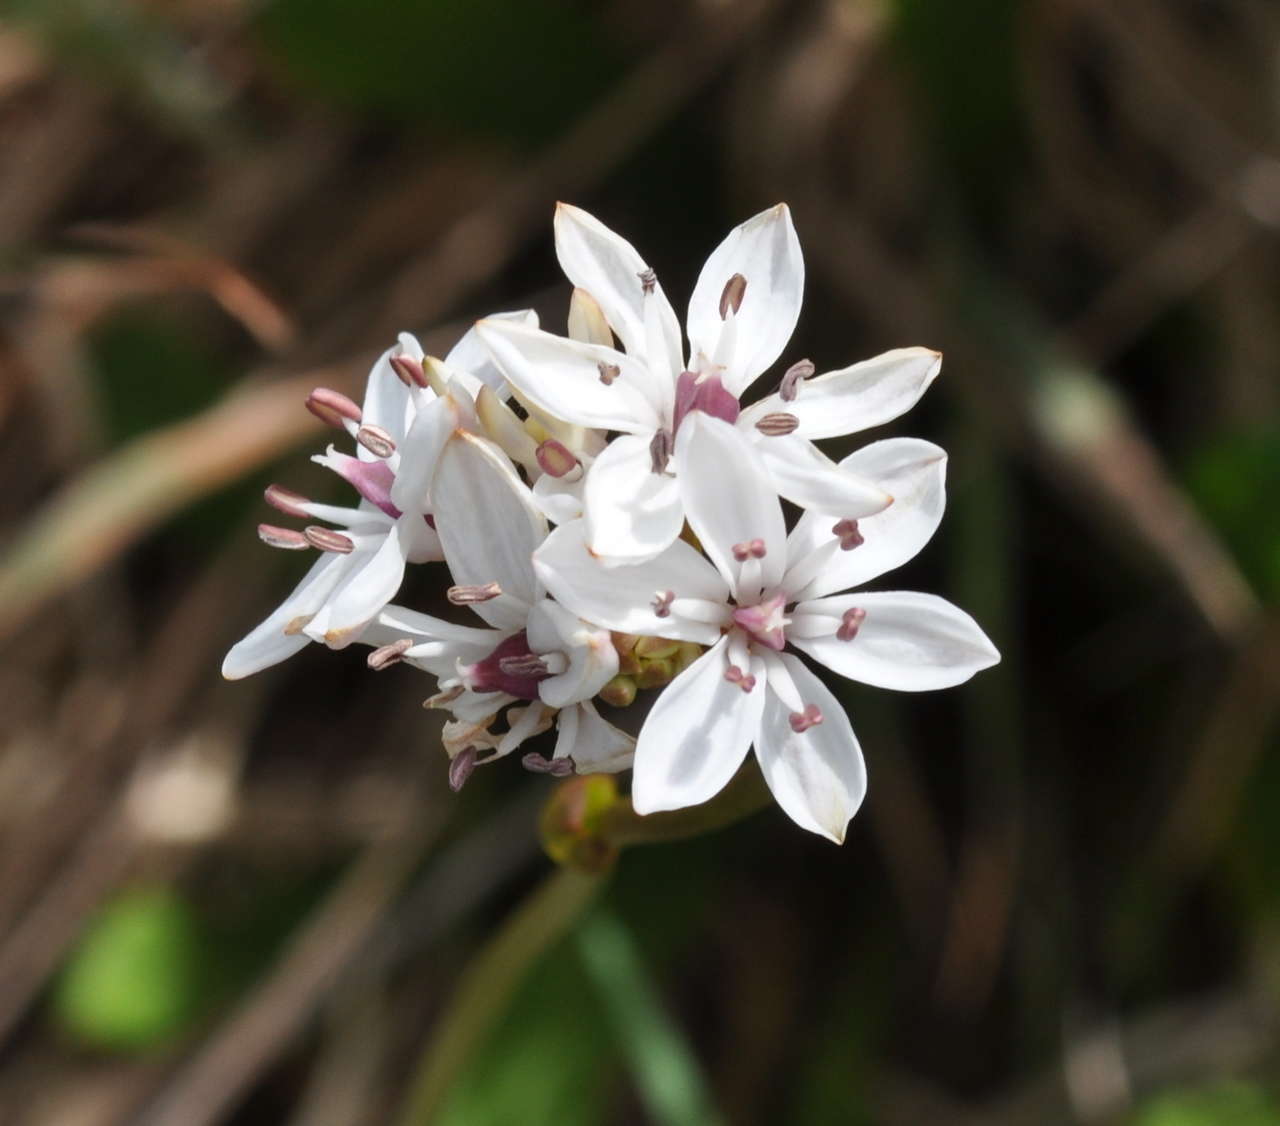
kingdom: Plantae
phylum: Tracheophyta
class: Liliopsida
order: Liliales
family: Colchicaceae
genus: Burchardia
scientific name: Burchardia umbellata
